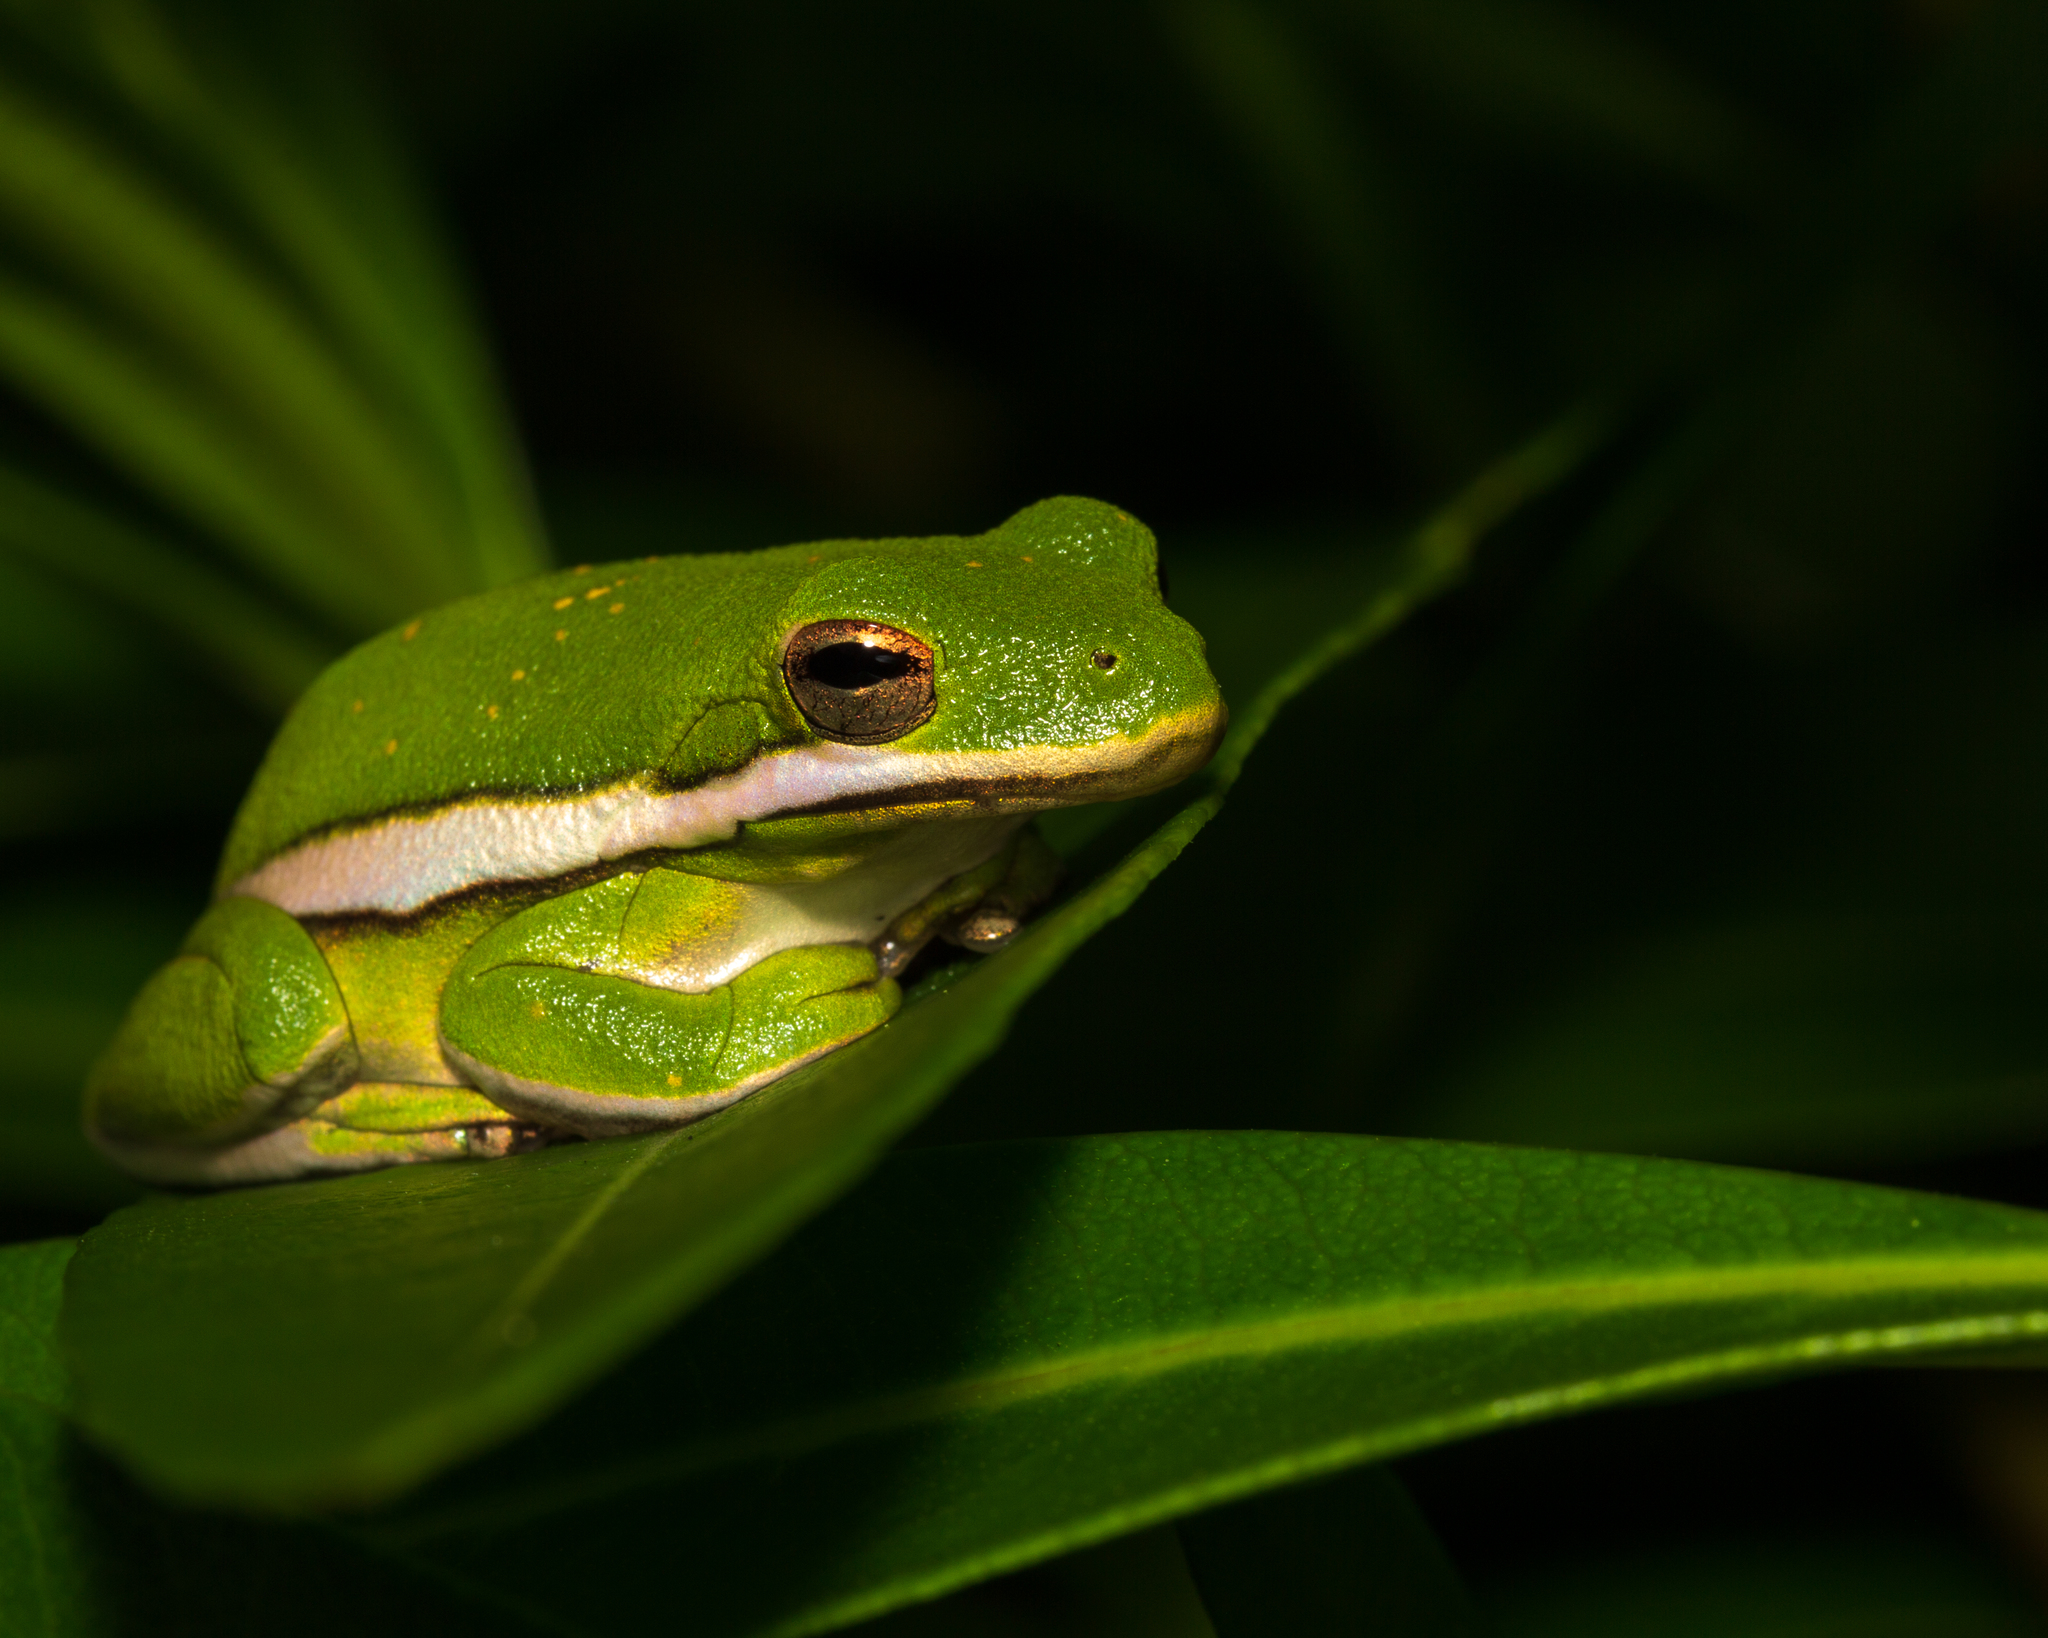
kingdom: Animalia
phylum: Chordata
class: Amphibia
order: Anura
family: Hylidae
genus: Dryophytes
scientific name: Dryophytes cinereus
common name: Green treefrog
